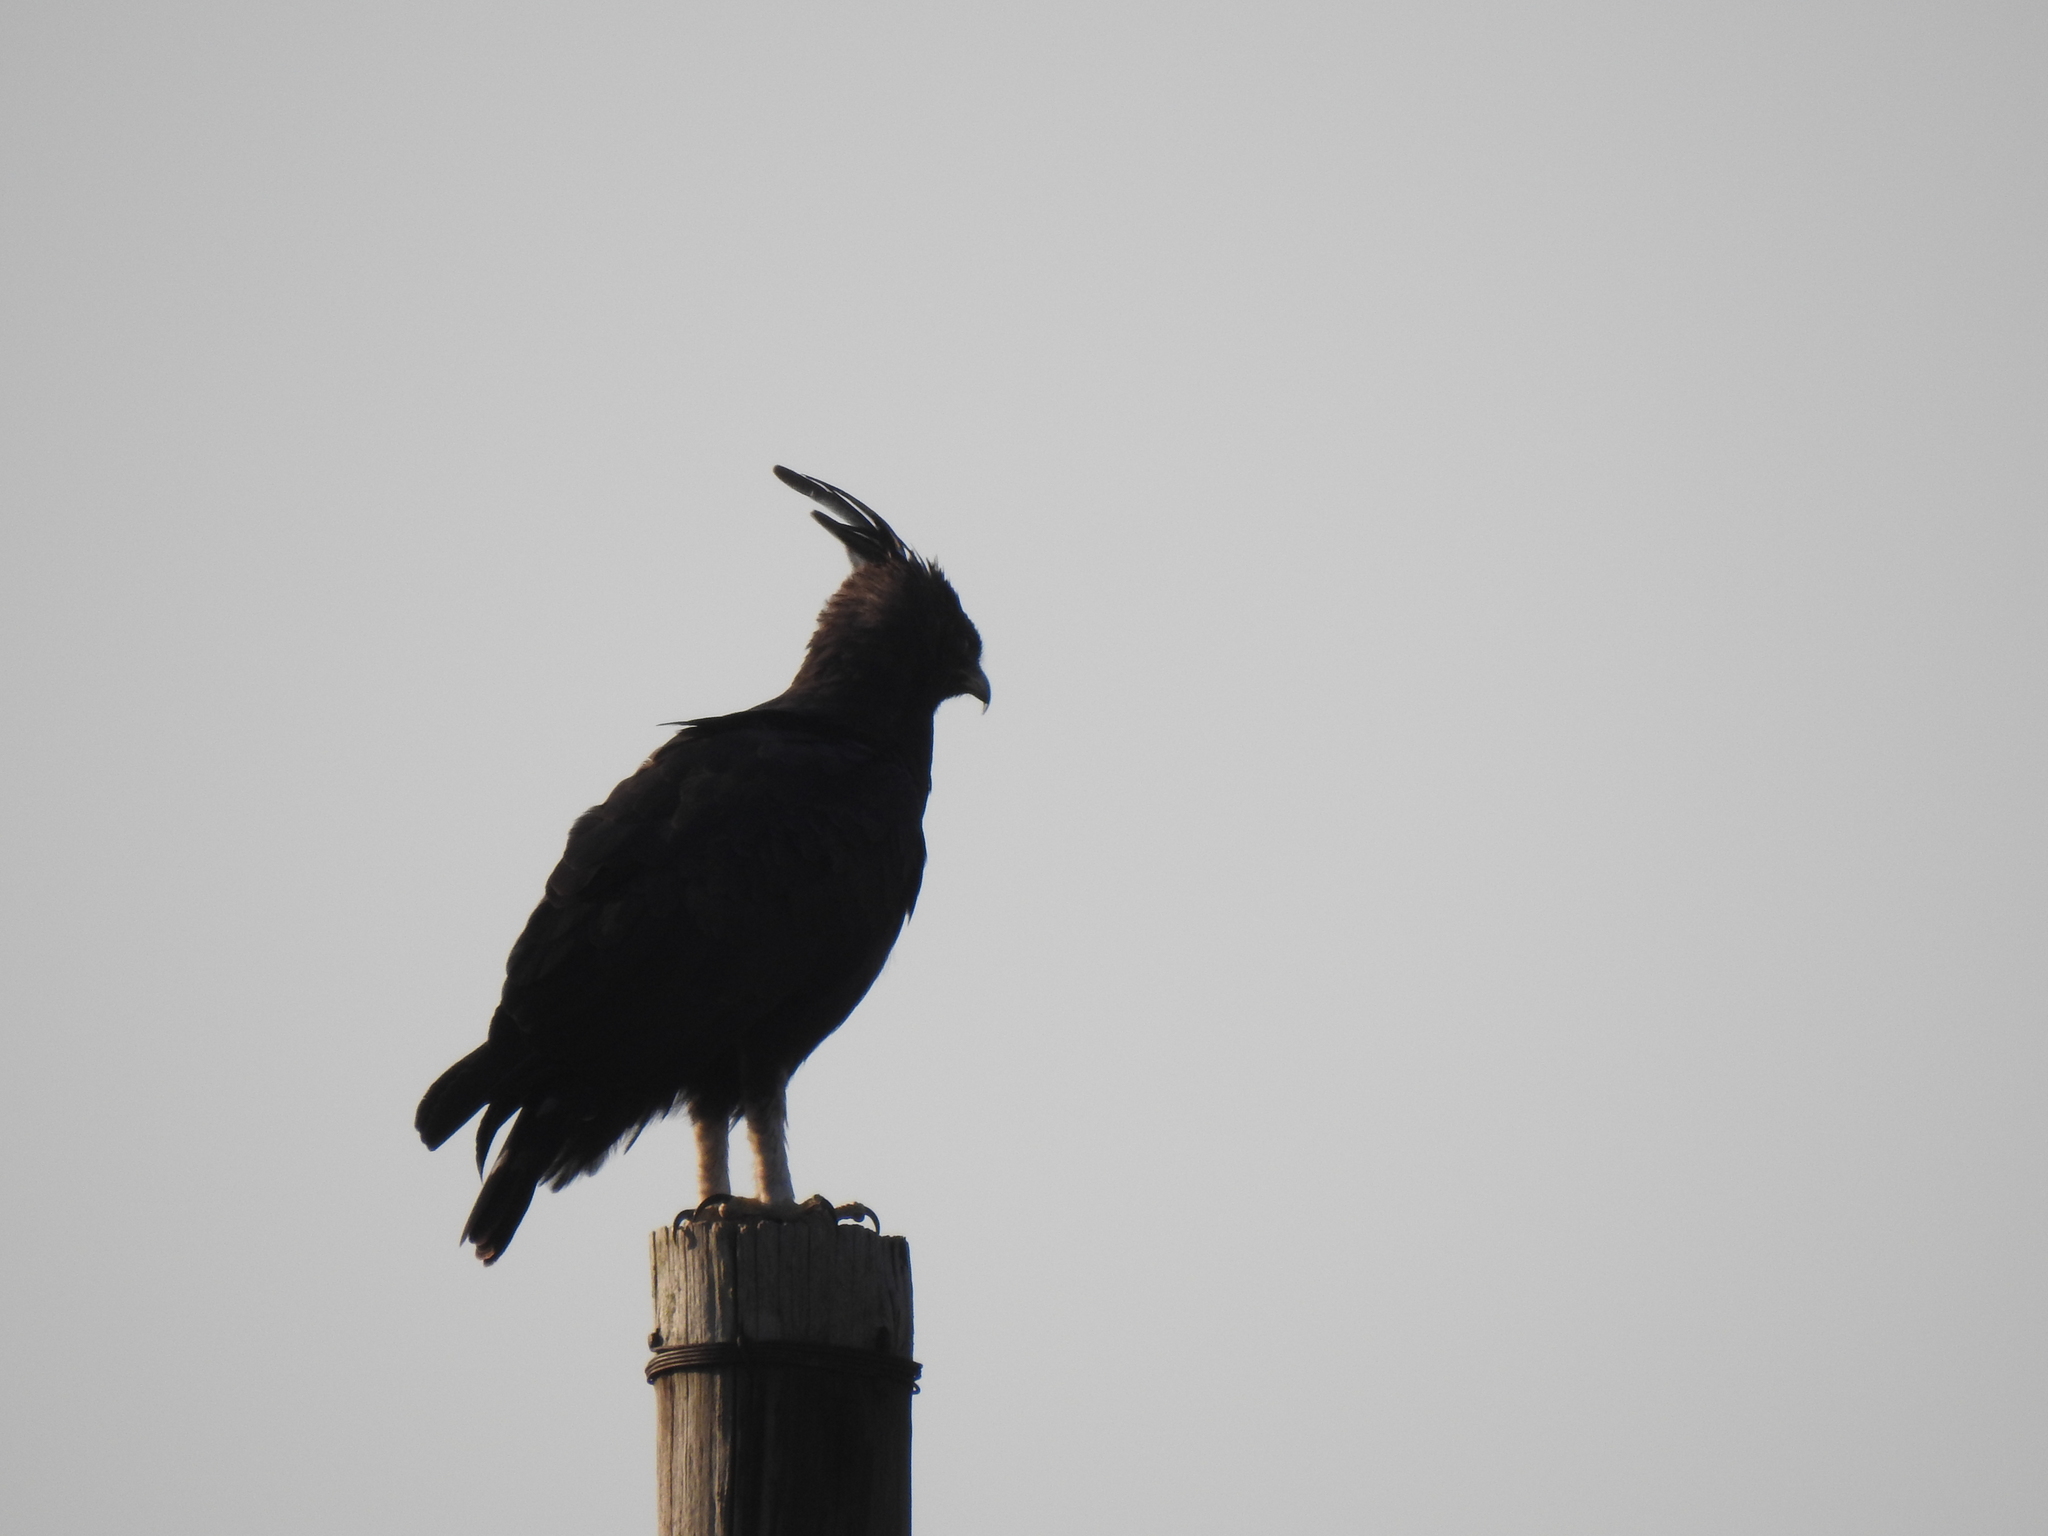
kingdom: Animalia
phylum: Chordata
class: Aves
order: Accipitriformes
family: Accipitridae
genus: Lophaetus
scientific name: Lophaetus occipitalis
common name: Long-crested eagle
